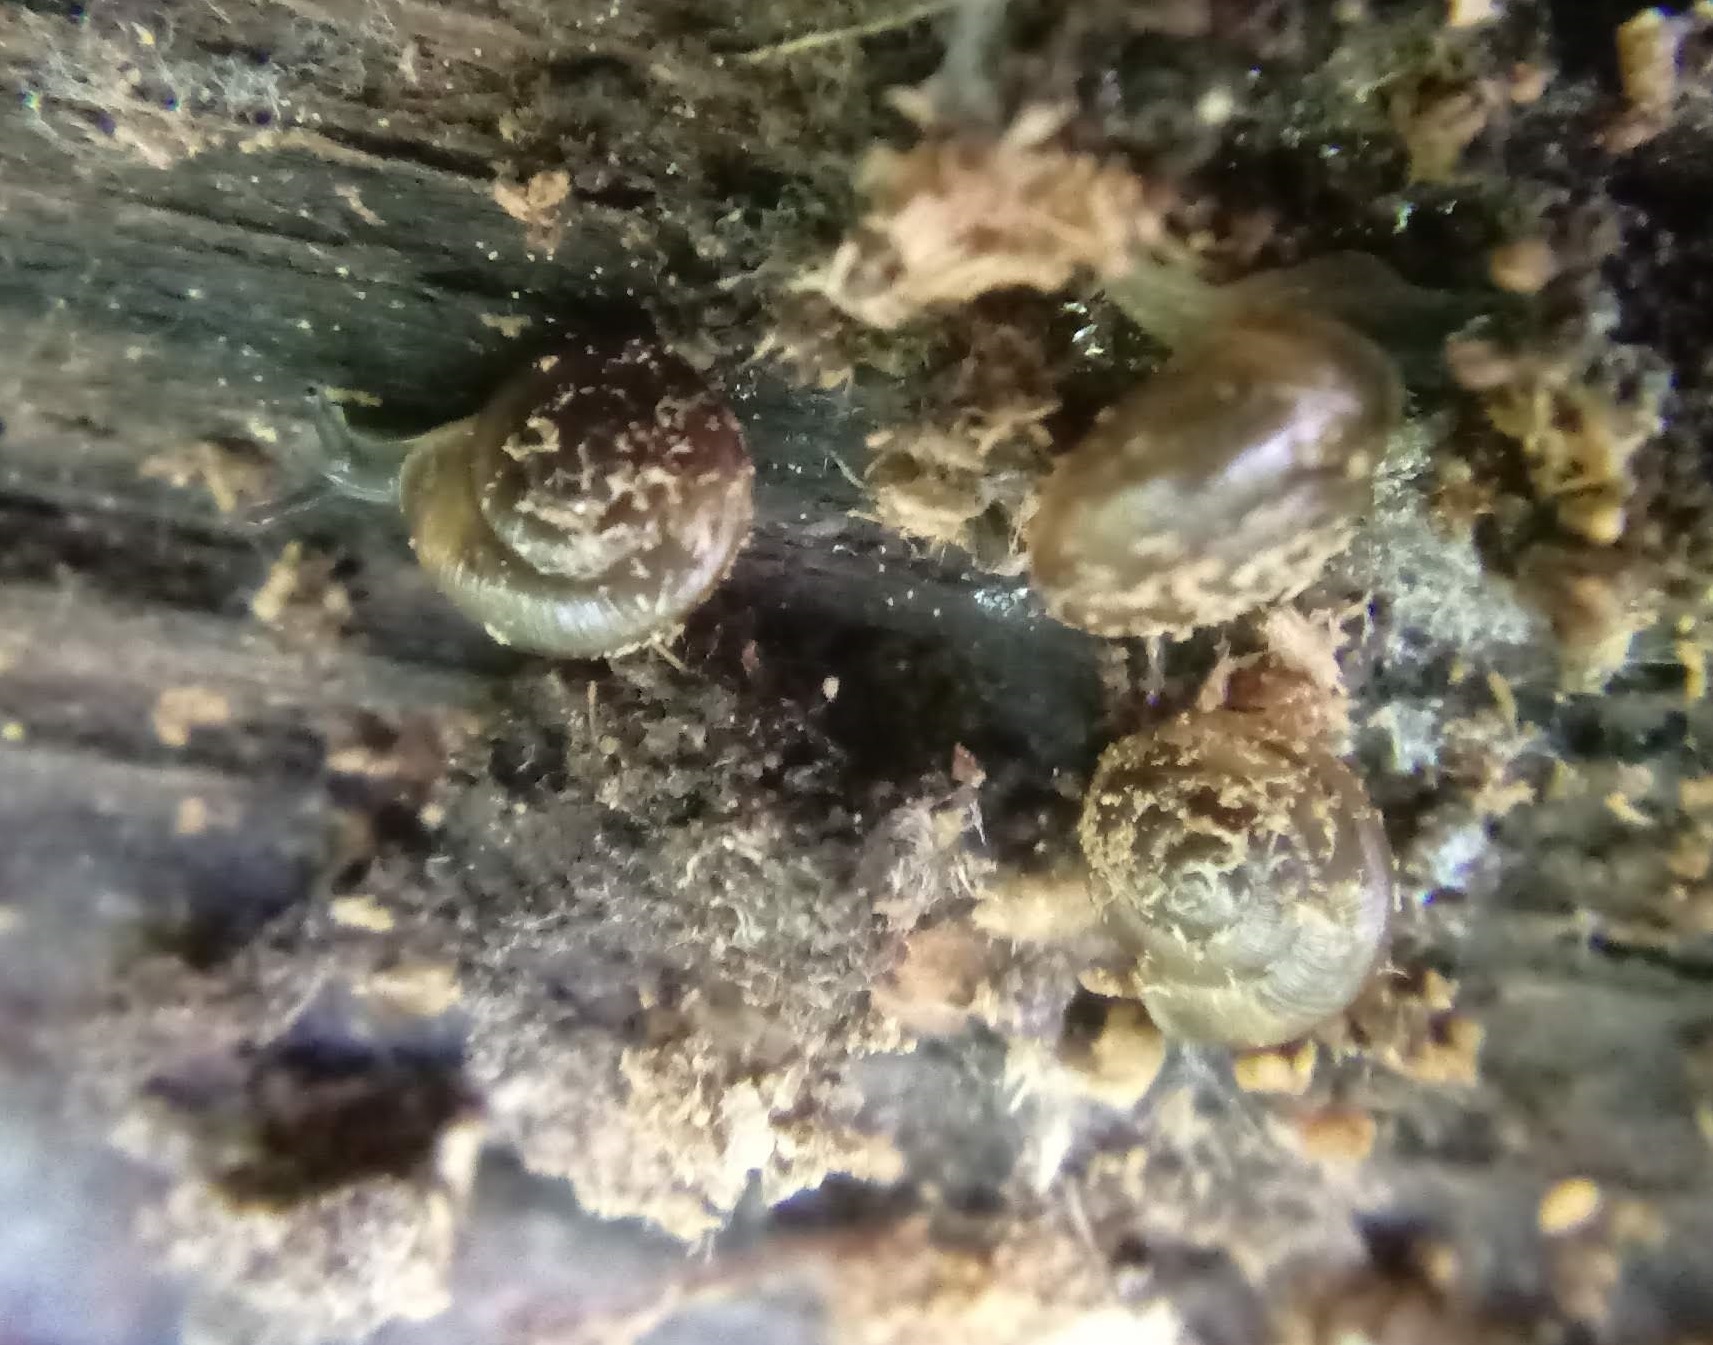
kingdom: Animalia
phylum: Mollusca
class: Gastropoda
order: Stylommatophora
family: Punctidae
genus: Punctum
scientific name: Punctum minutissimum
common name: Small spot
